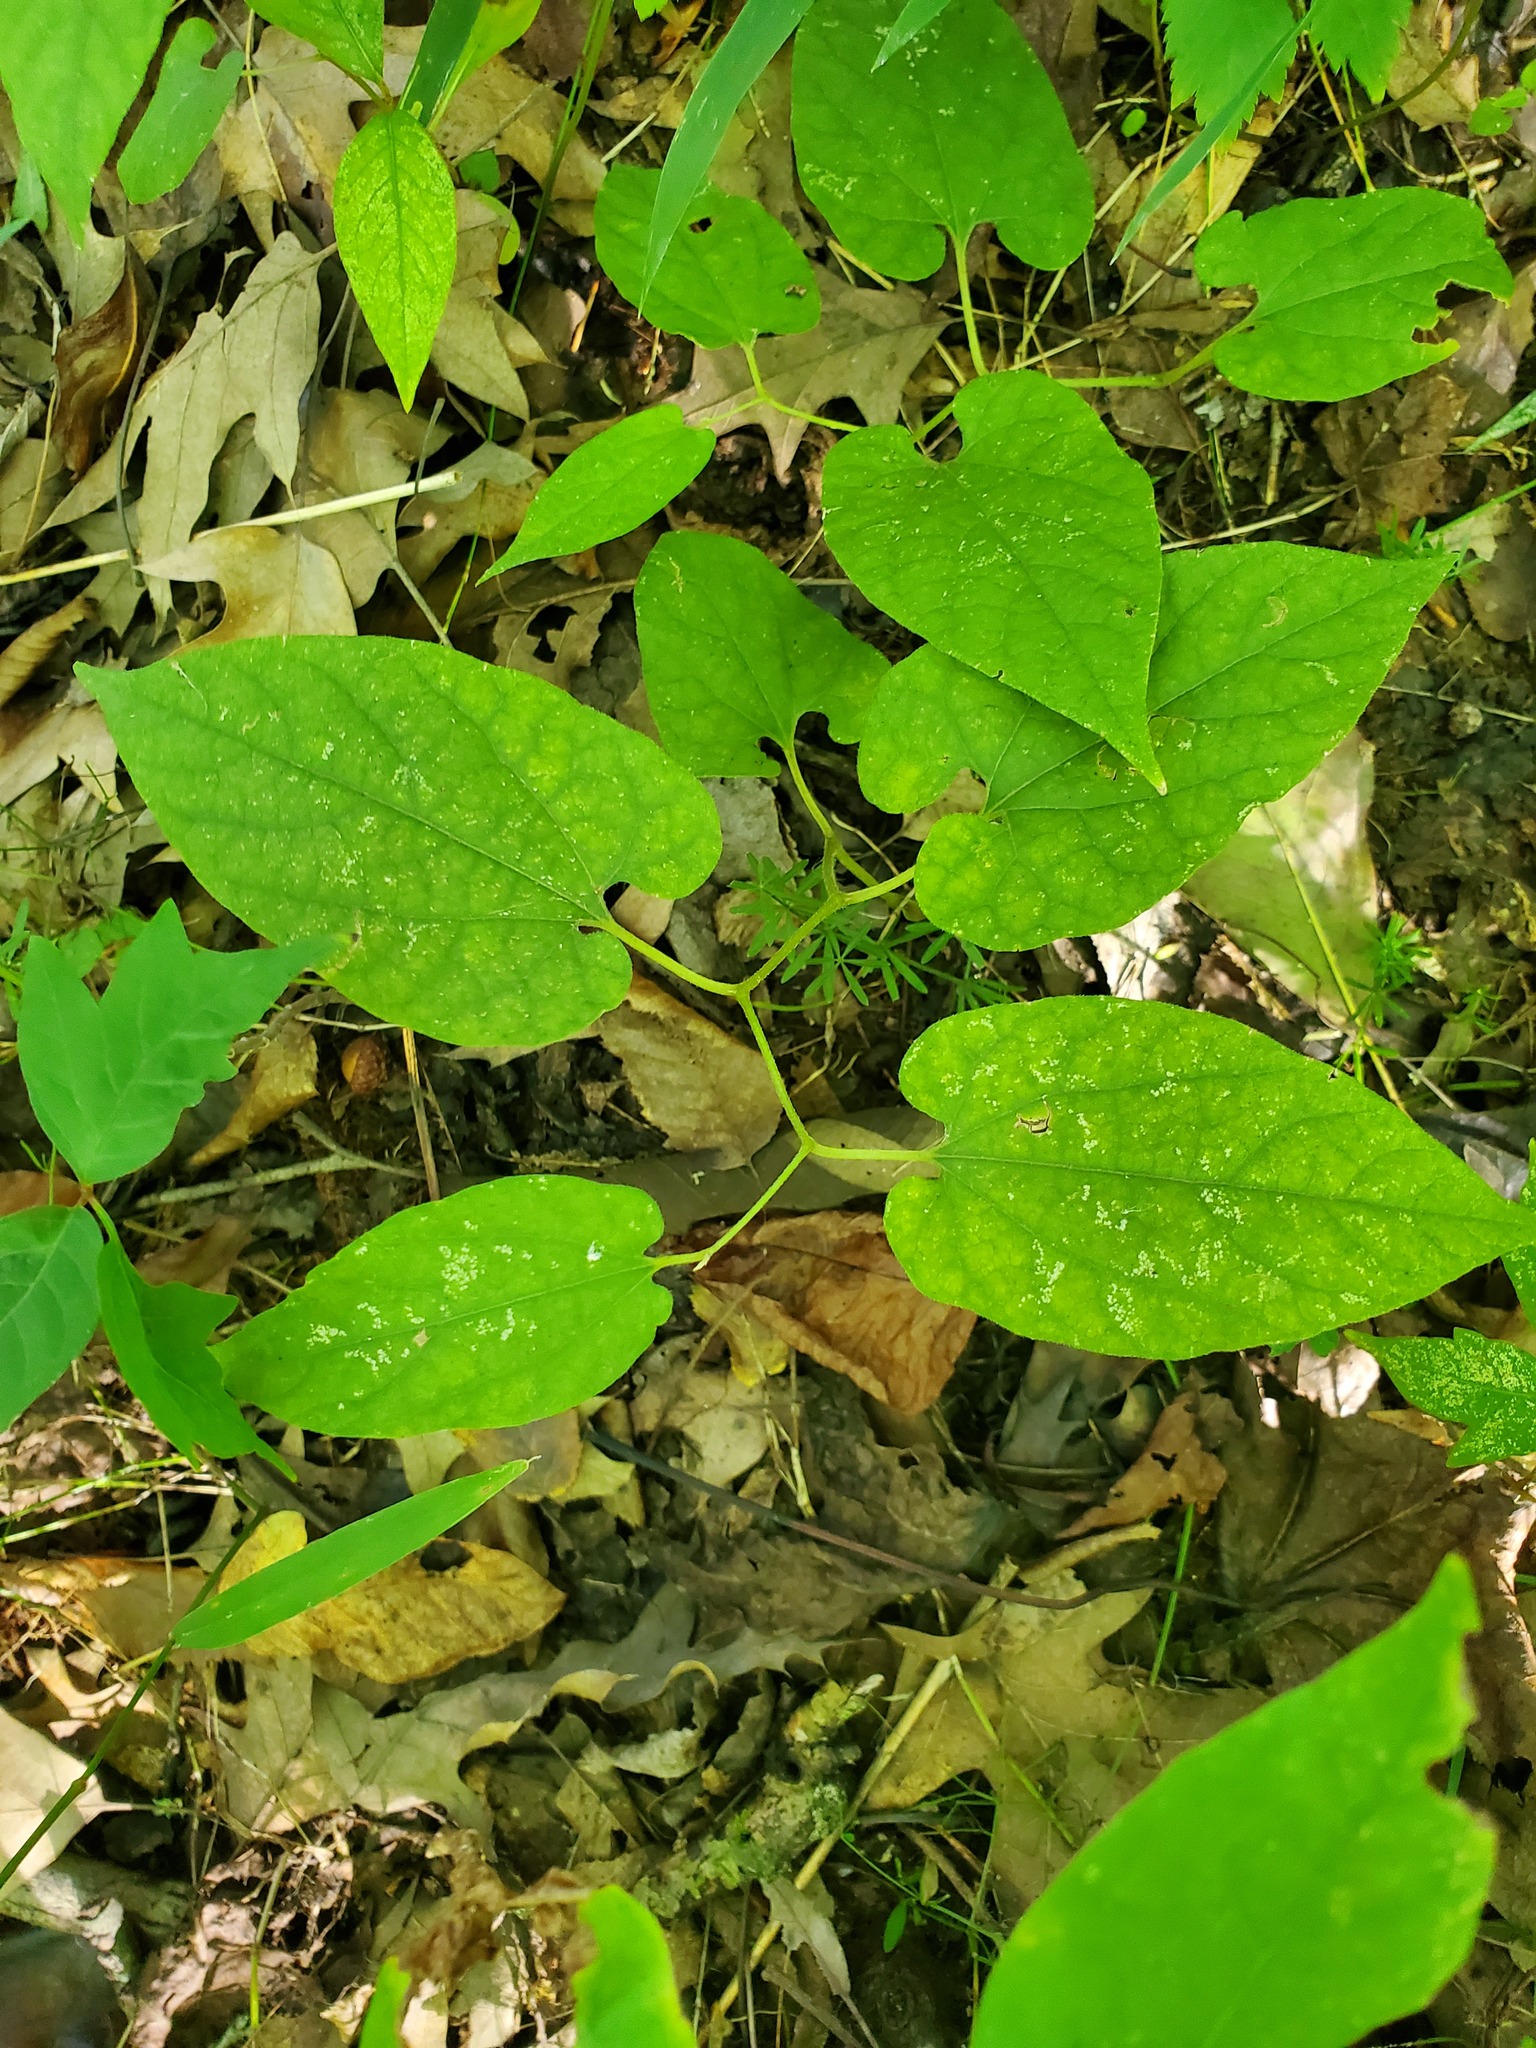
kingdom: Plantae
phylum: Tracheophyta
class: Magnoliopsida
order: Piperales
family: Aristolochiaceae
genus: Endodeca
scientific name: Endodeca serpentaria
